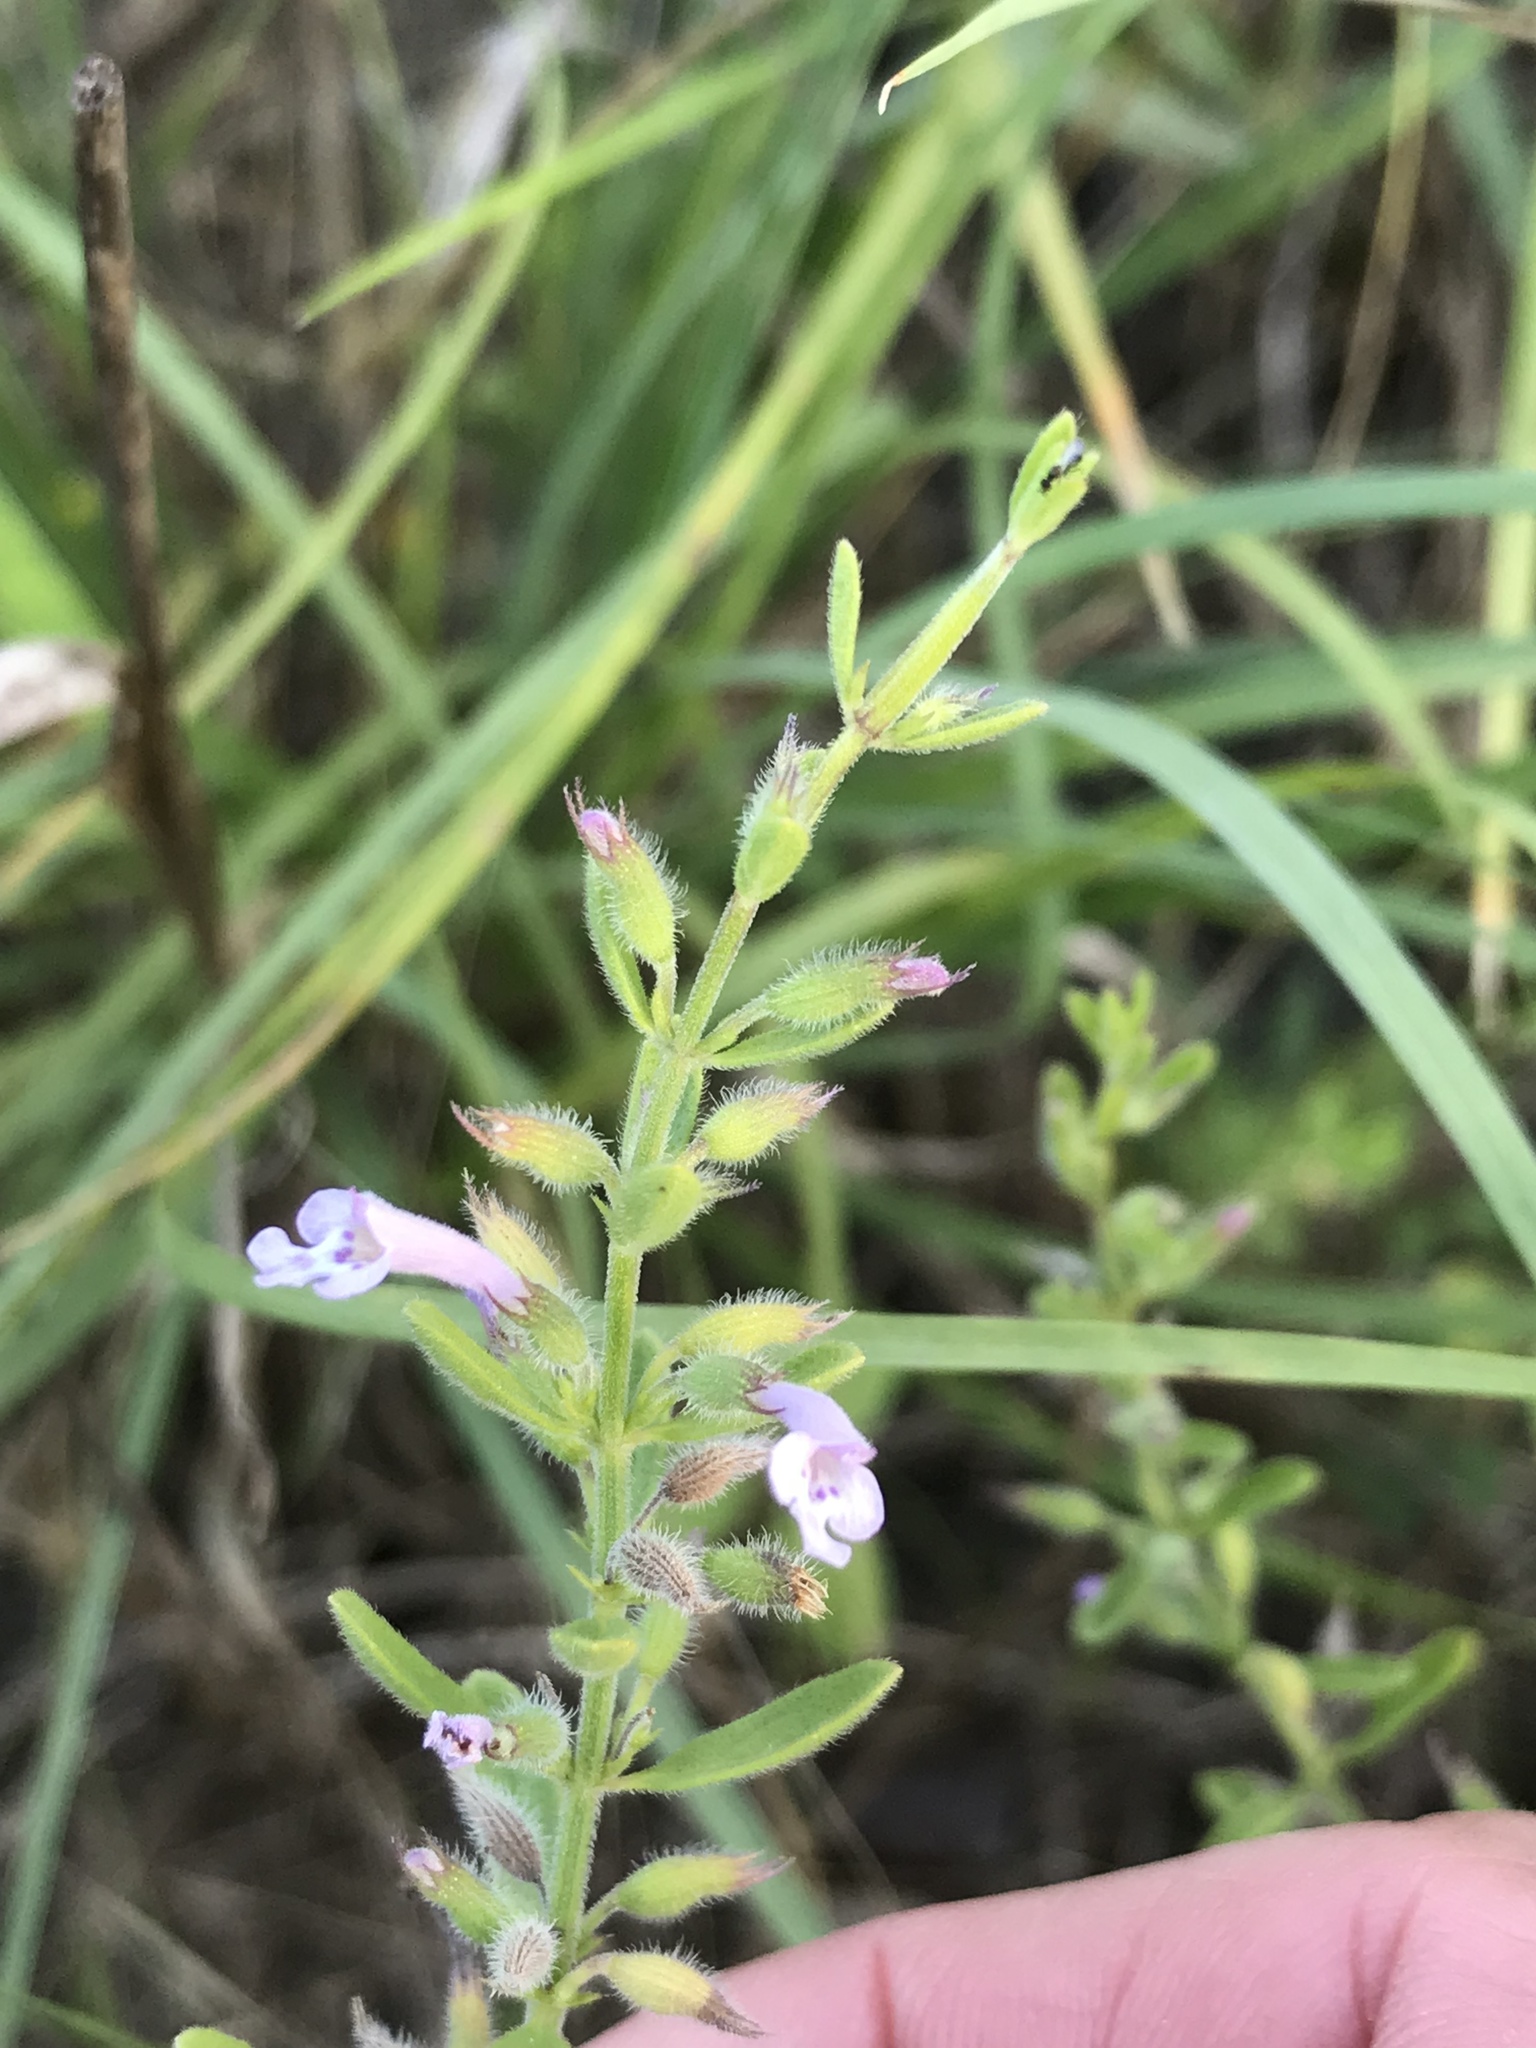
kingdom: Plantae
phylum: Tracheophyta
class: Magnoliopsida
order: Lamiales
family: Lamiaceae
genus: Hedeoma
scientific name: Hedeoma reverchonii
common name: Reverchon's false penny-royal
